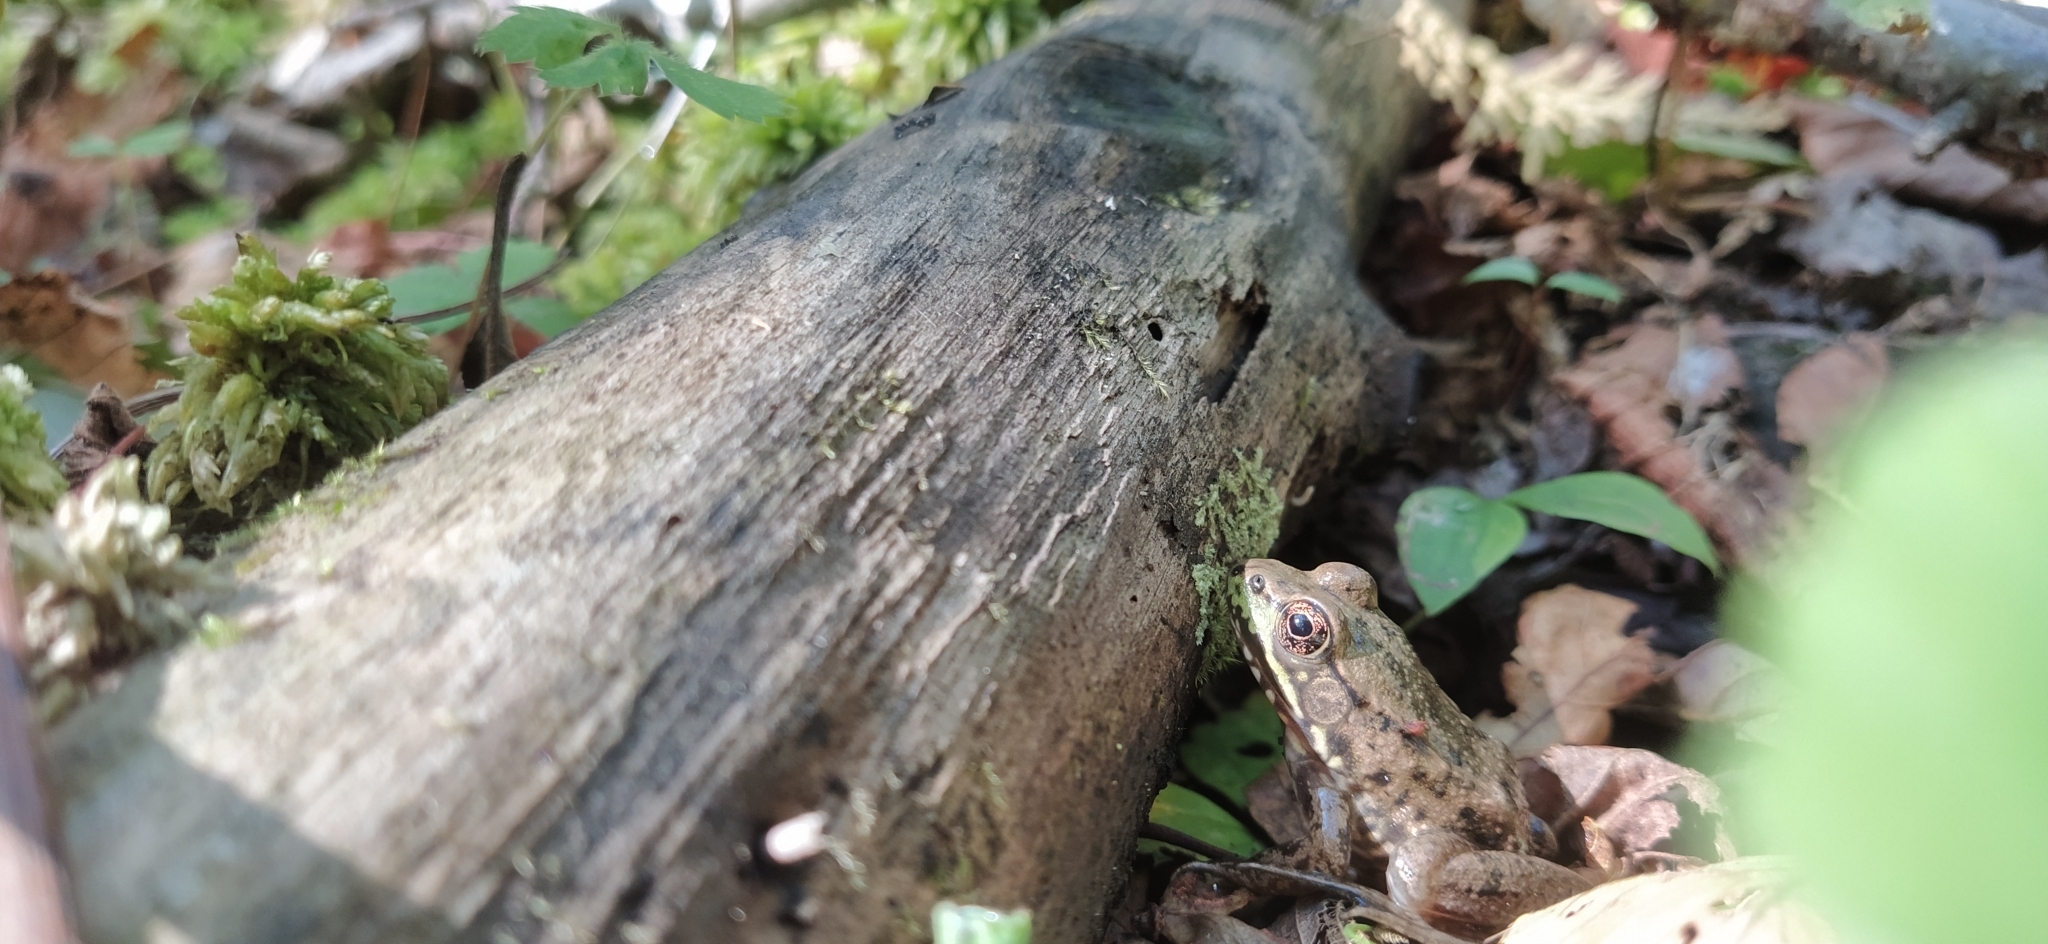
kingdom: Animalia
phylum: Chordata
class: Amphibia
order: Anura
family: Ranidae
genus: Lithobates
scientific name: Lithobates clamitans
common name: Green frog
